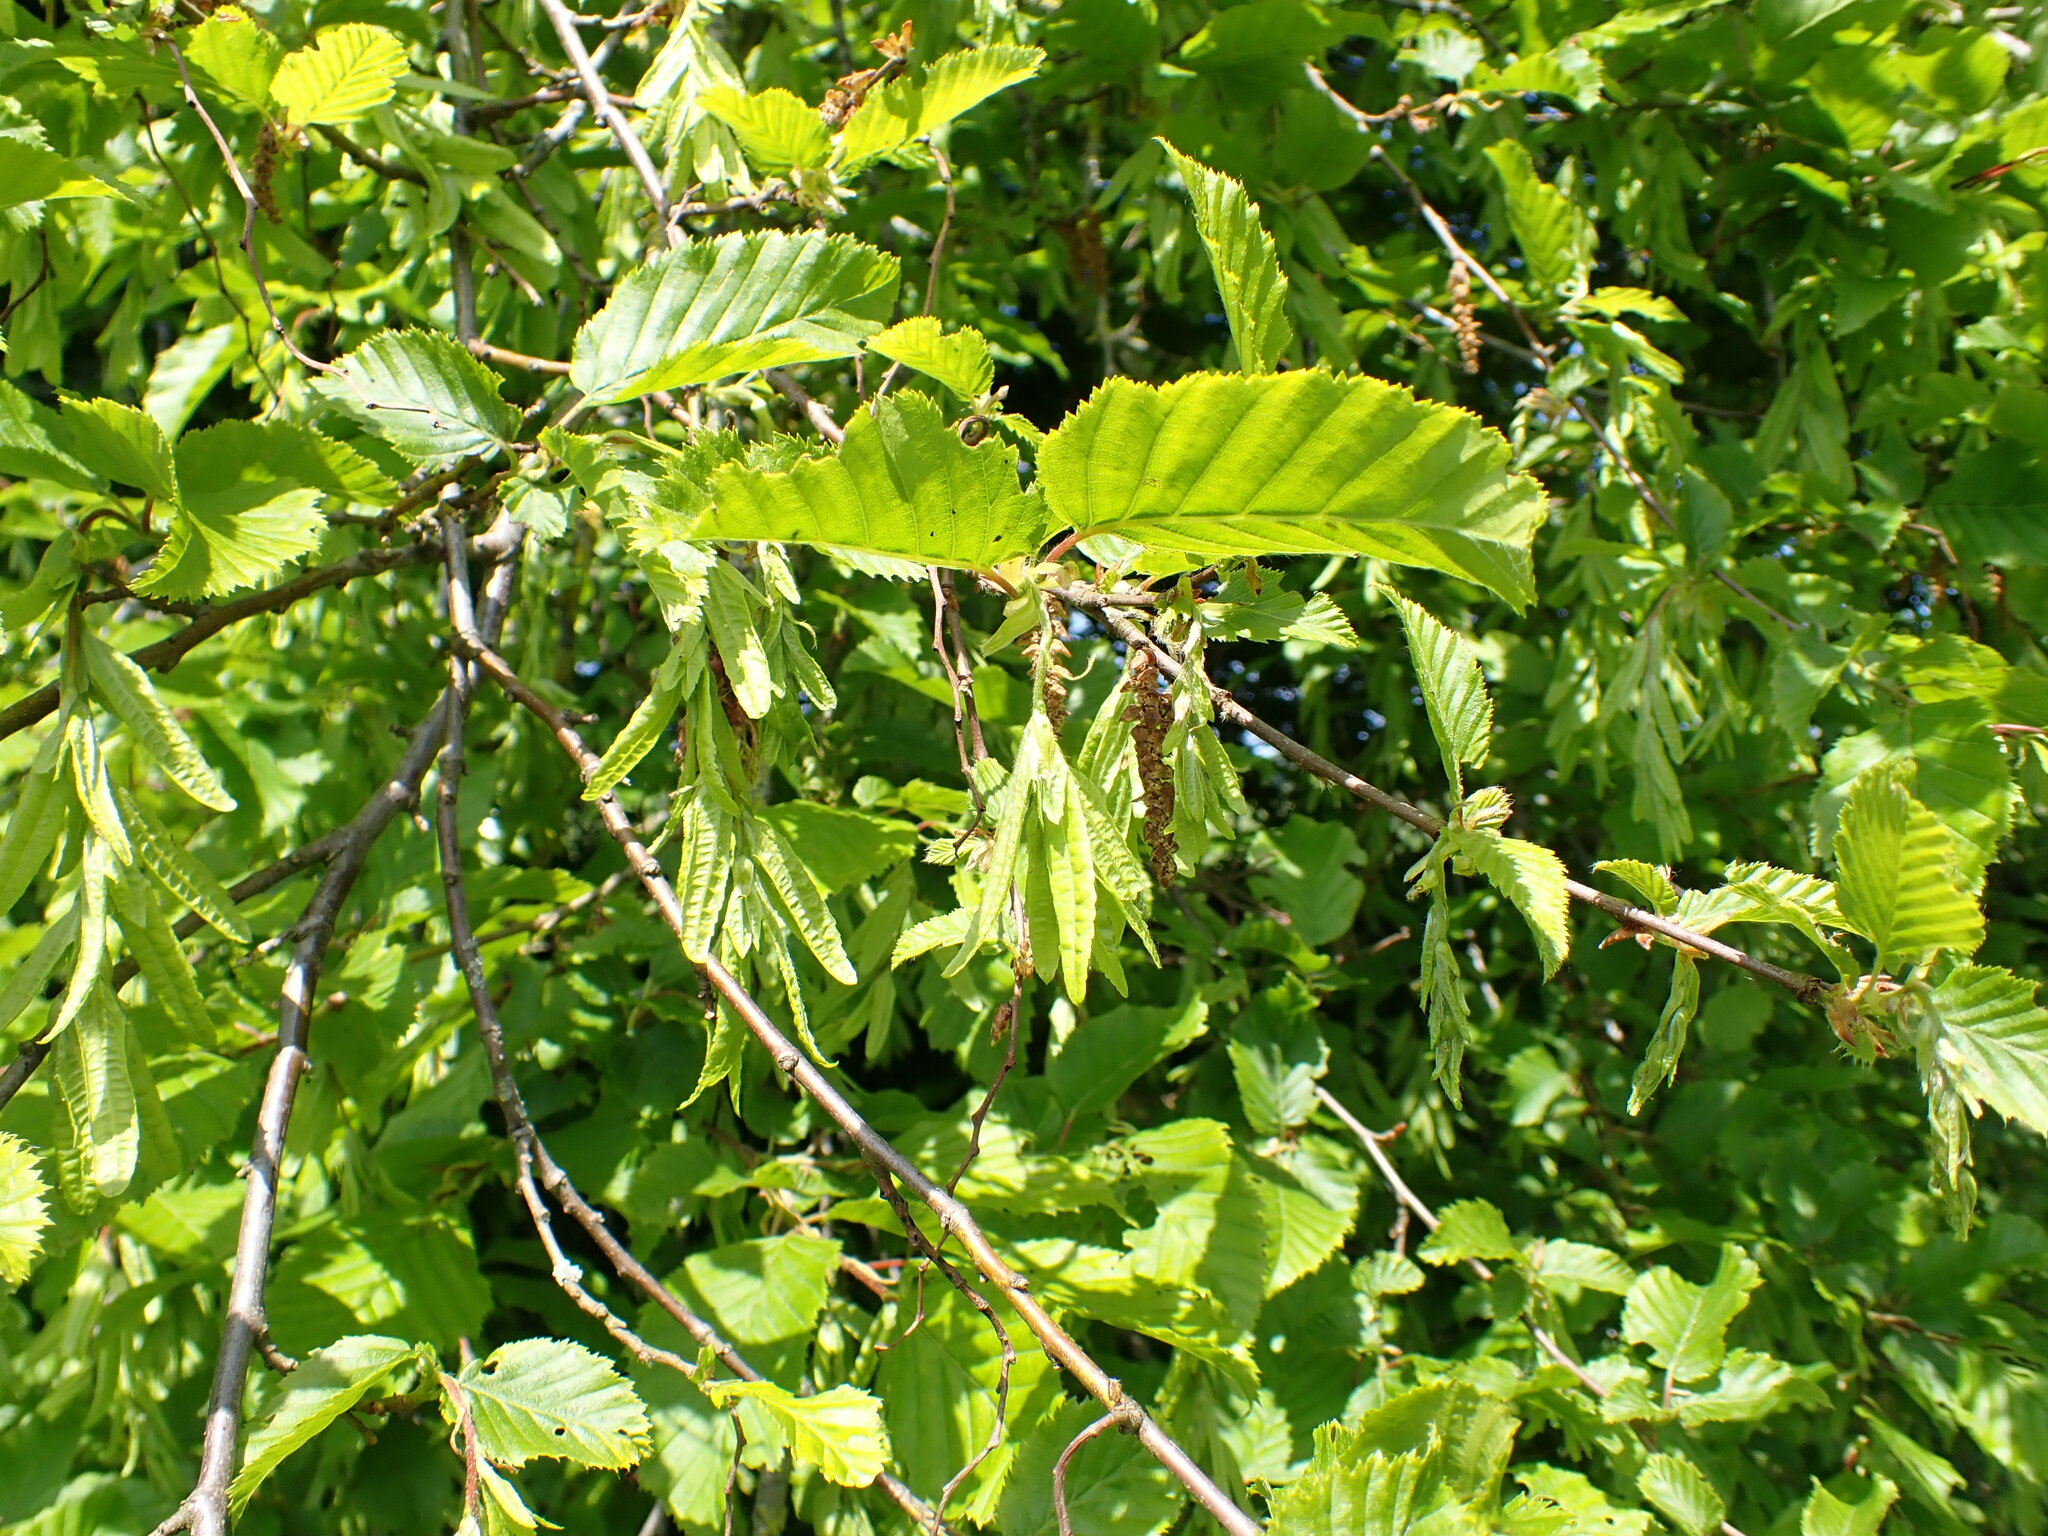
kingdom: Plantae
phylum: Tracheophyta
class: Magnoliopsida
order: Fagales
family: Betulaceae
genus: Carpinus
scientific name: Carpinus betulus
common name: Hornbeam
